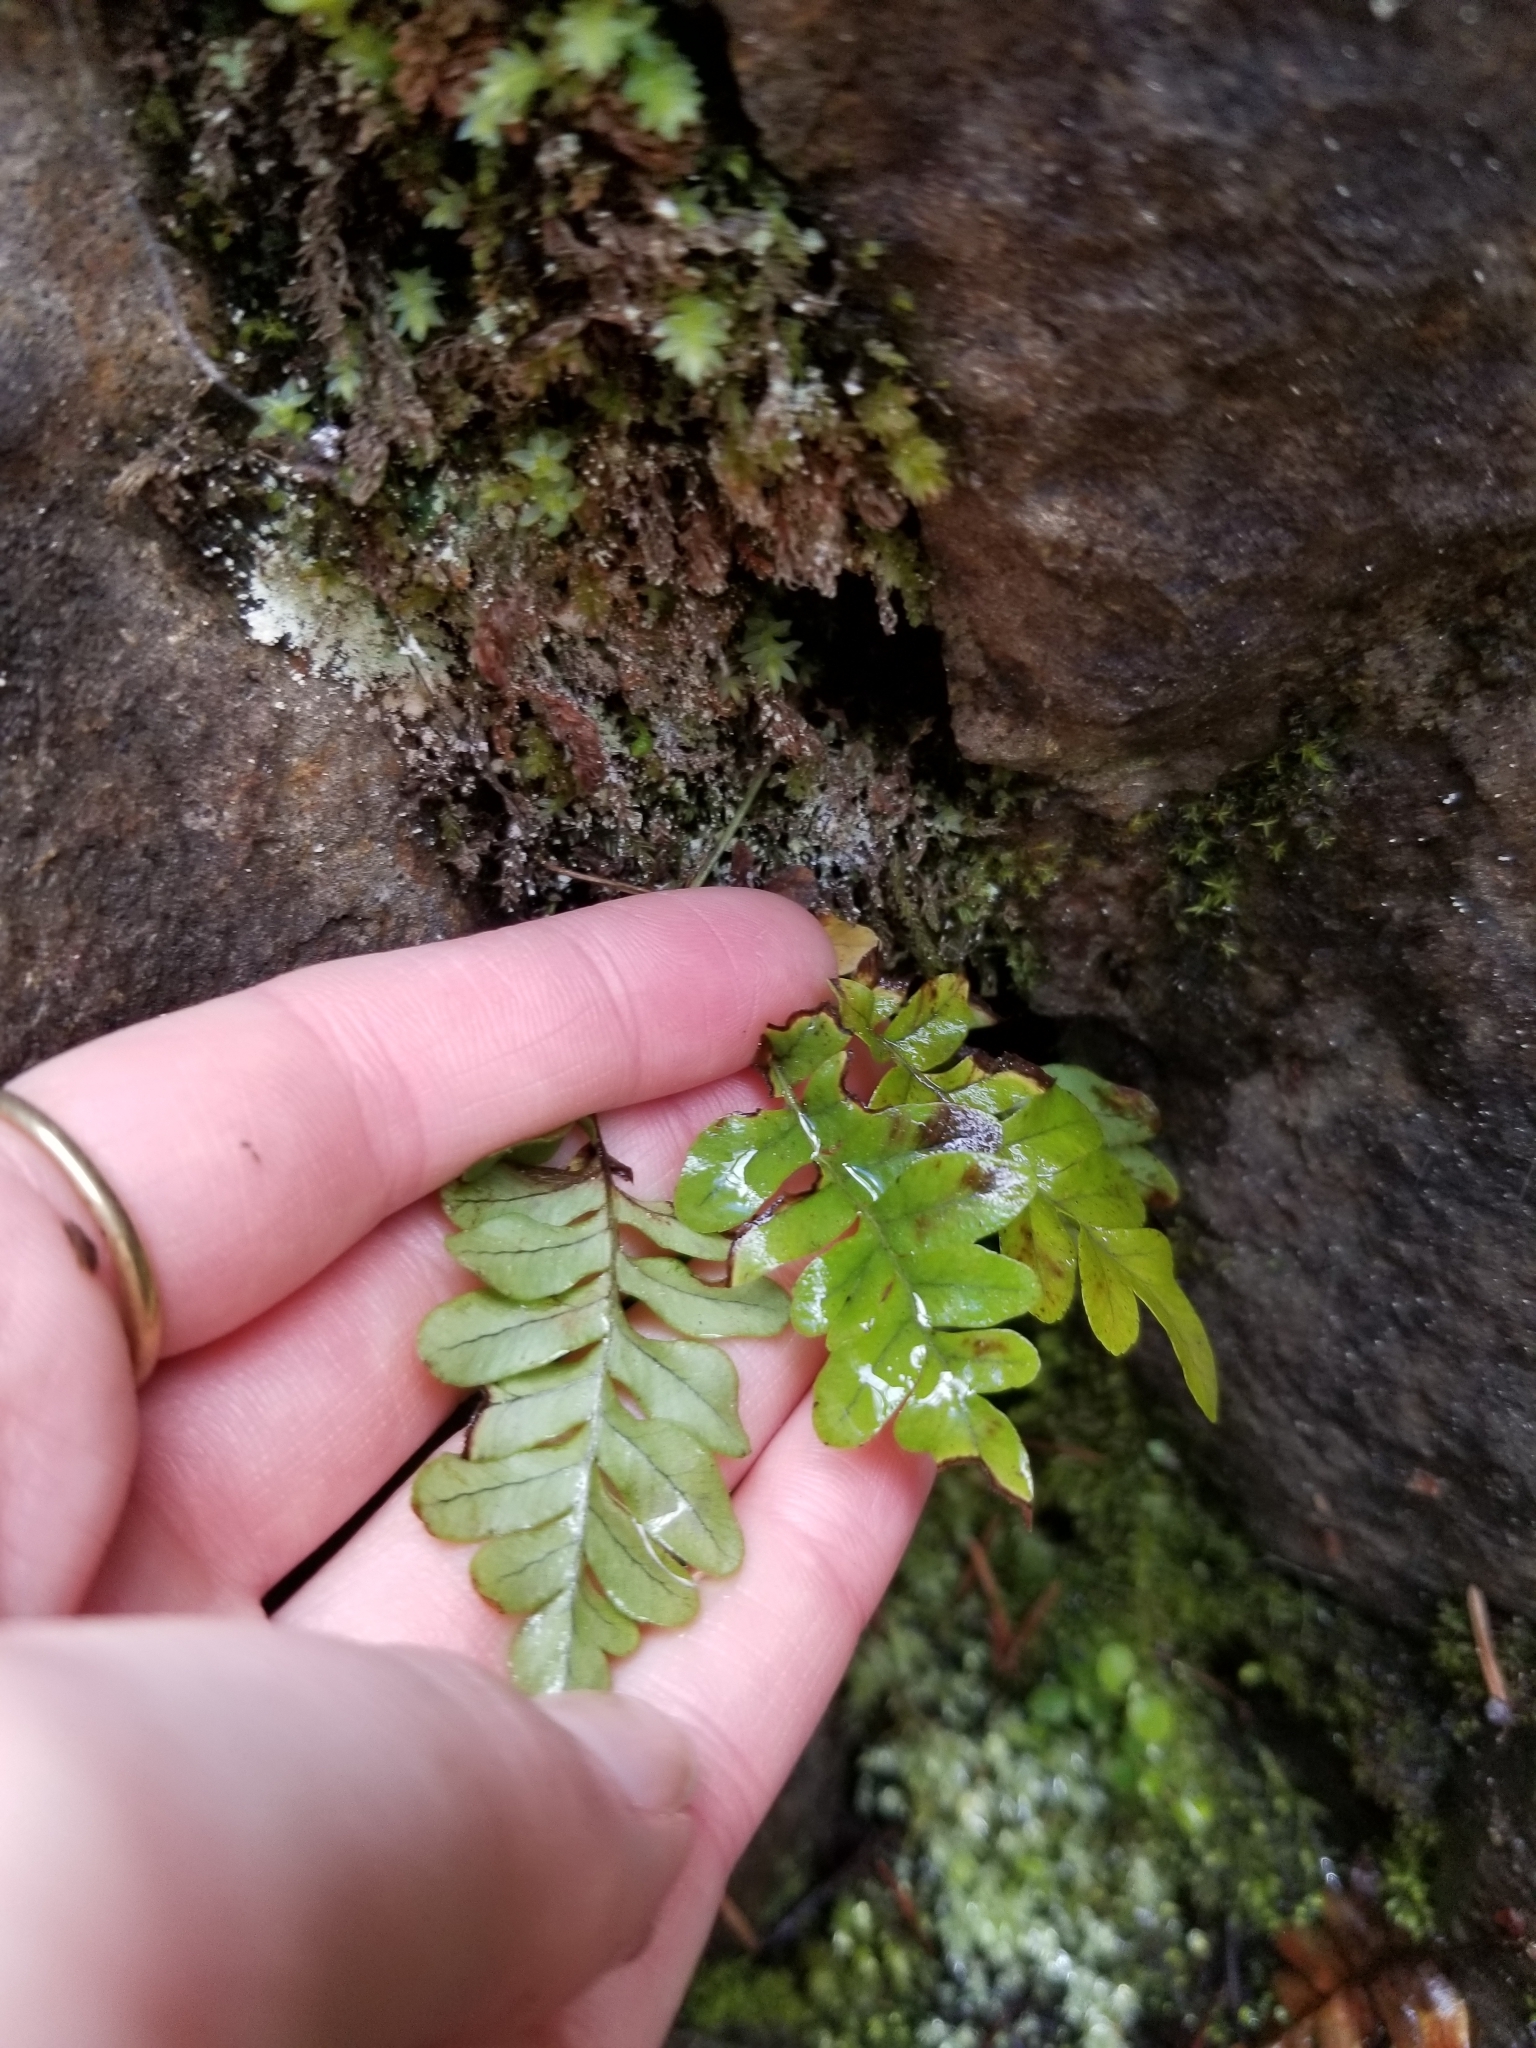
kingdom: Plantae
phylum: Tracheophyta
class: Polypodiopsida
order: Polypodiales
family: Polypodiaceae
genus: Polypodium
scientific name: Polypodium hesperium
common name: Western polypody
